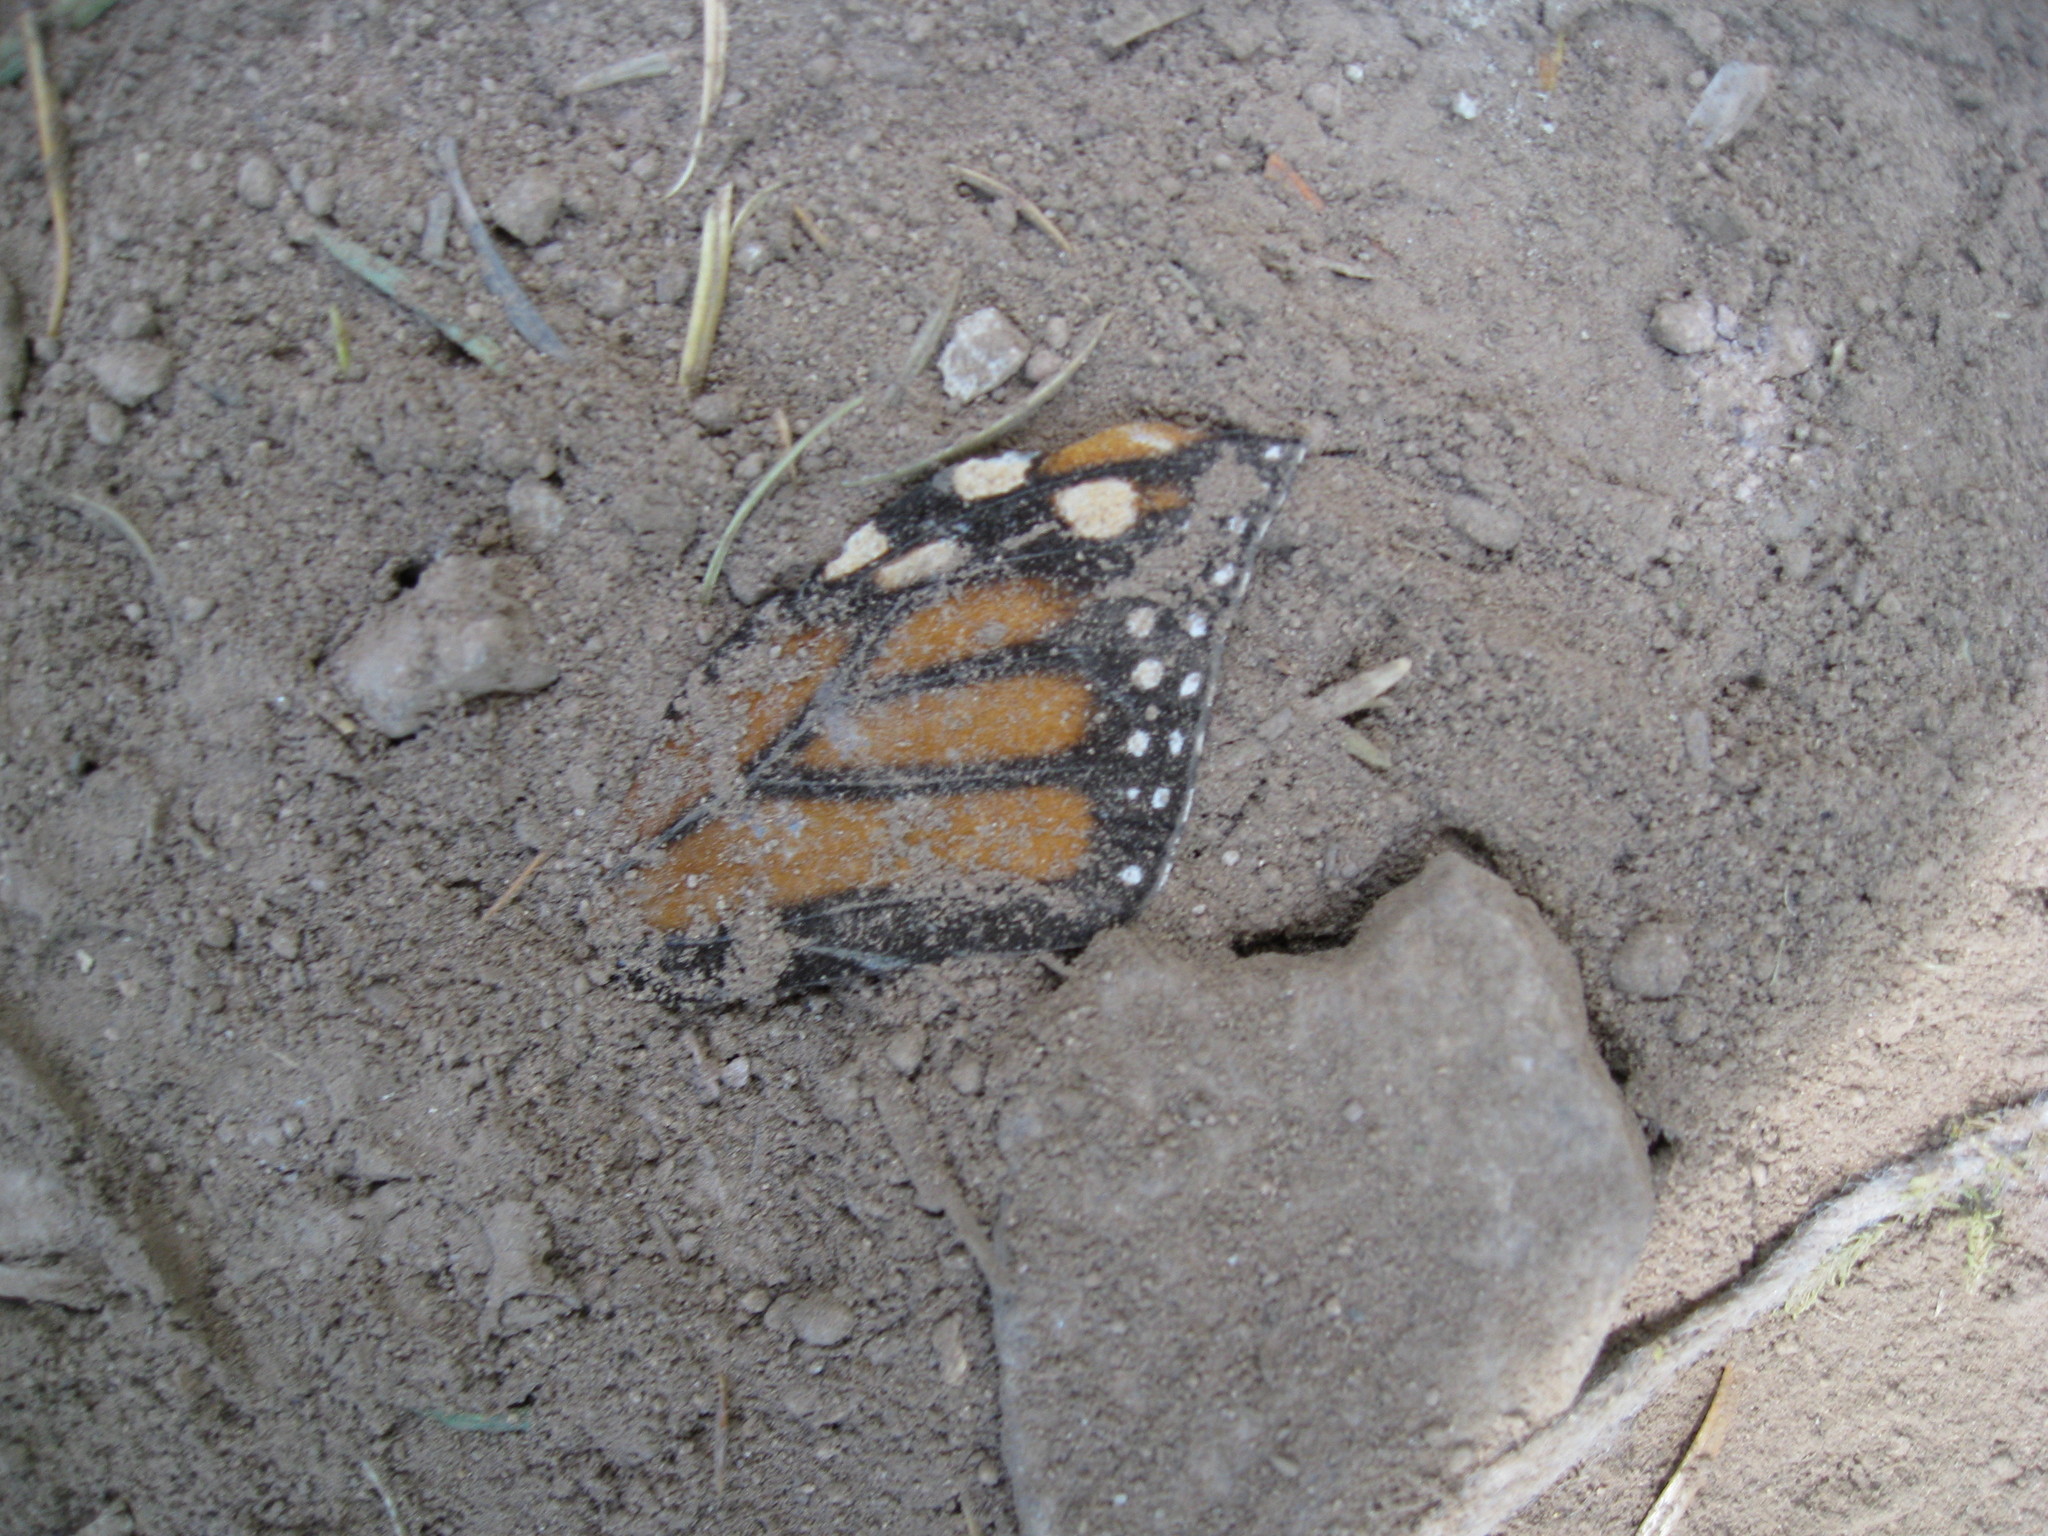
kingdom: Animalia
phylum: Arthropoda
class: Insecta
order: Lepidoptera
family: Nymphalidae
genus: Danaus
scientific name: Danaus plexippus
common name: Monarch
